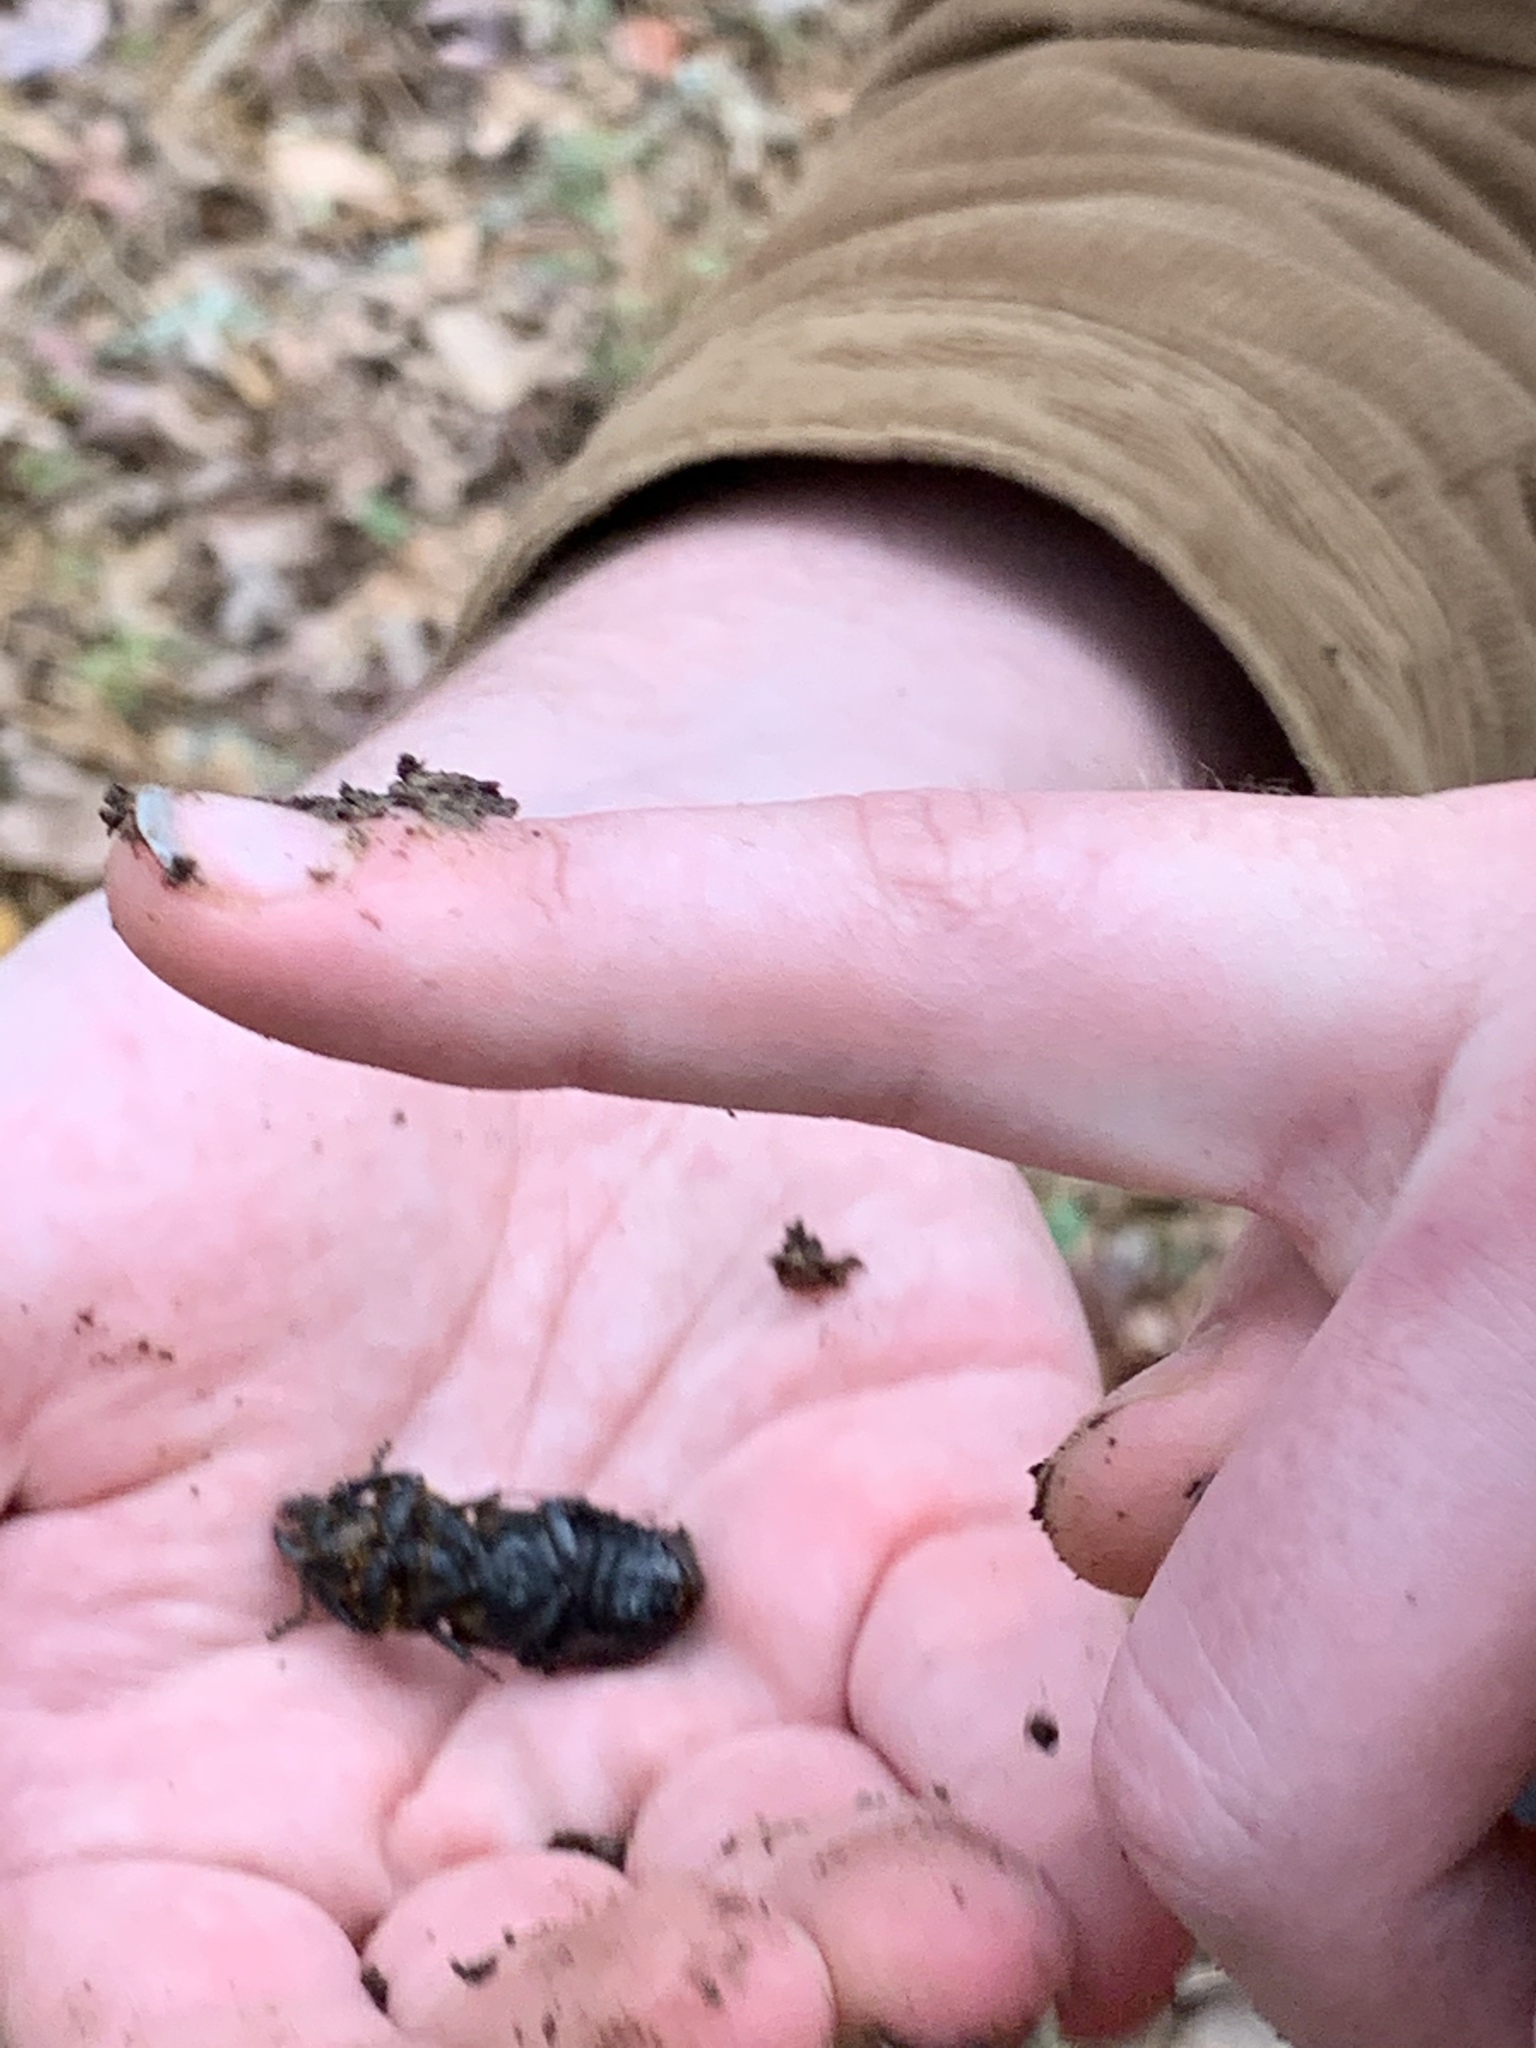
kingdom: Animalia
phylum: Arthropoda
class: Insecta
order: Coleoptera
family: Passalidae
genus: Odontotaenius
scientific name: Odontotaenius disjunctus
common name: Patent leather beetle
